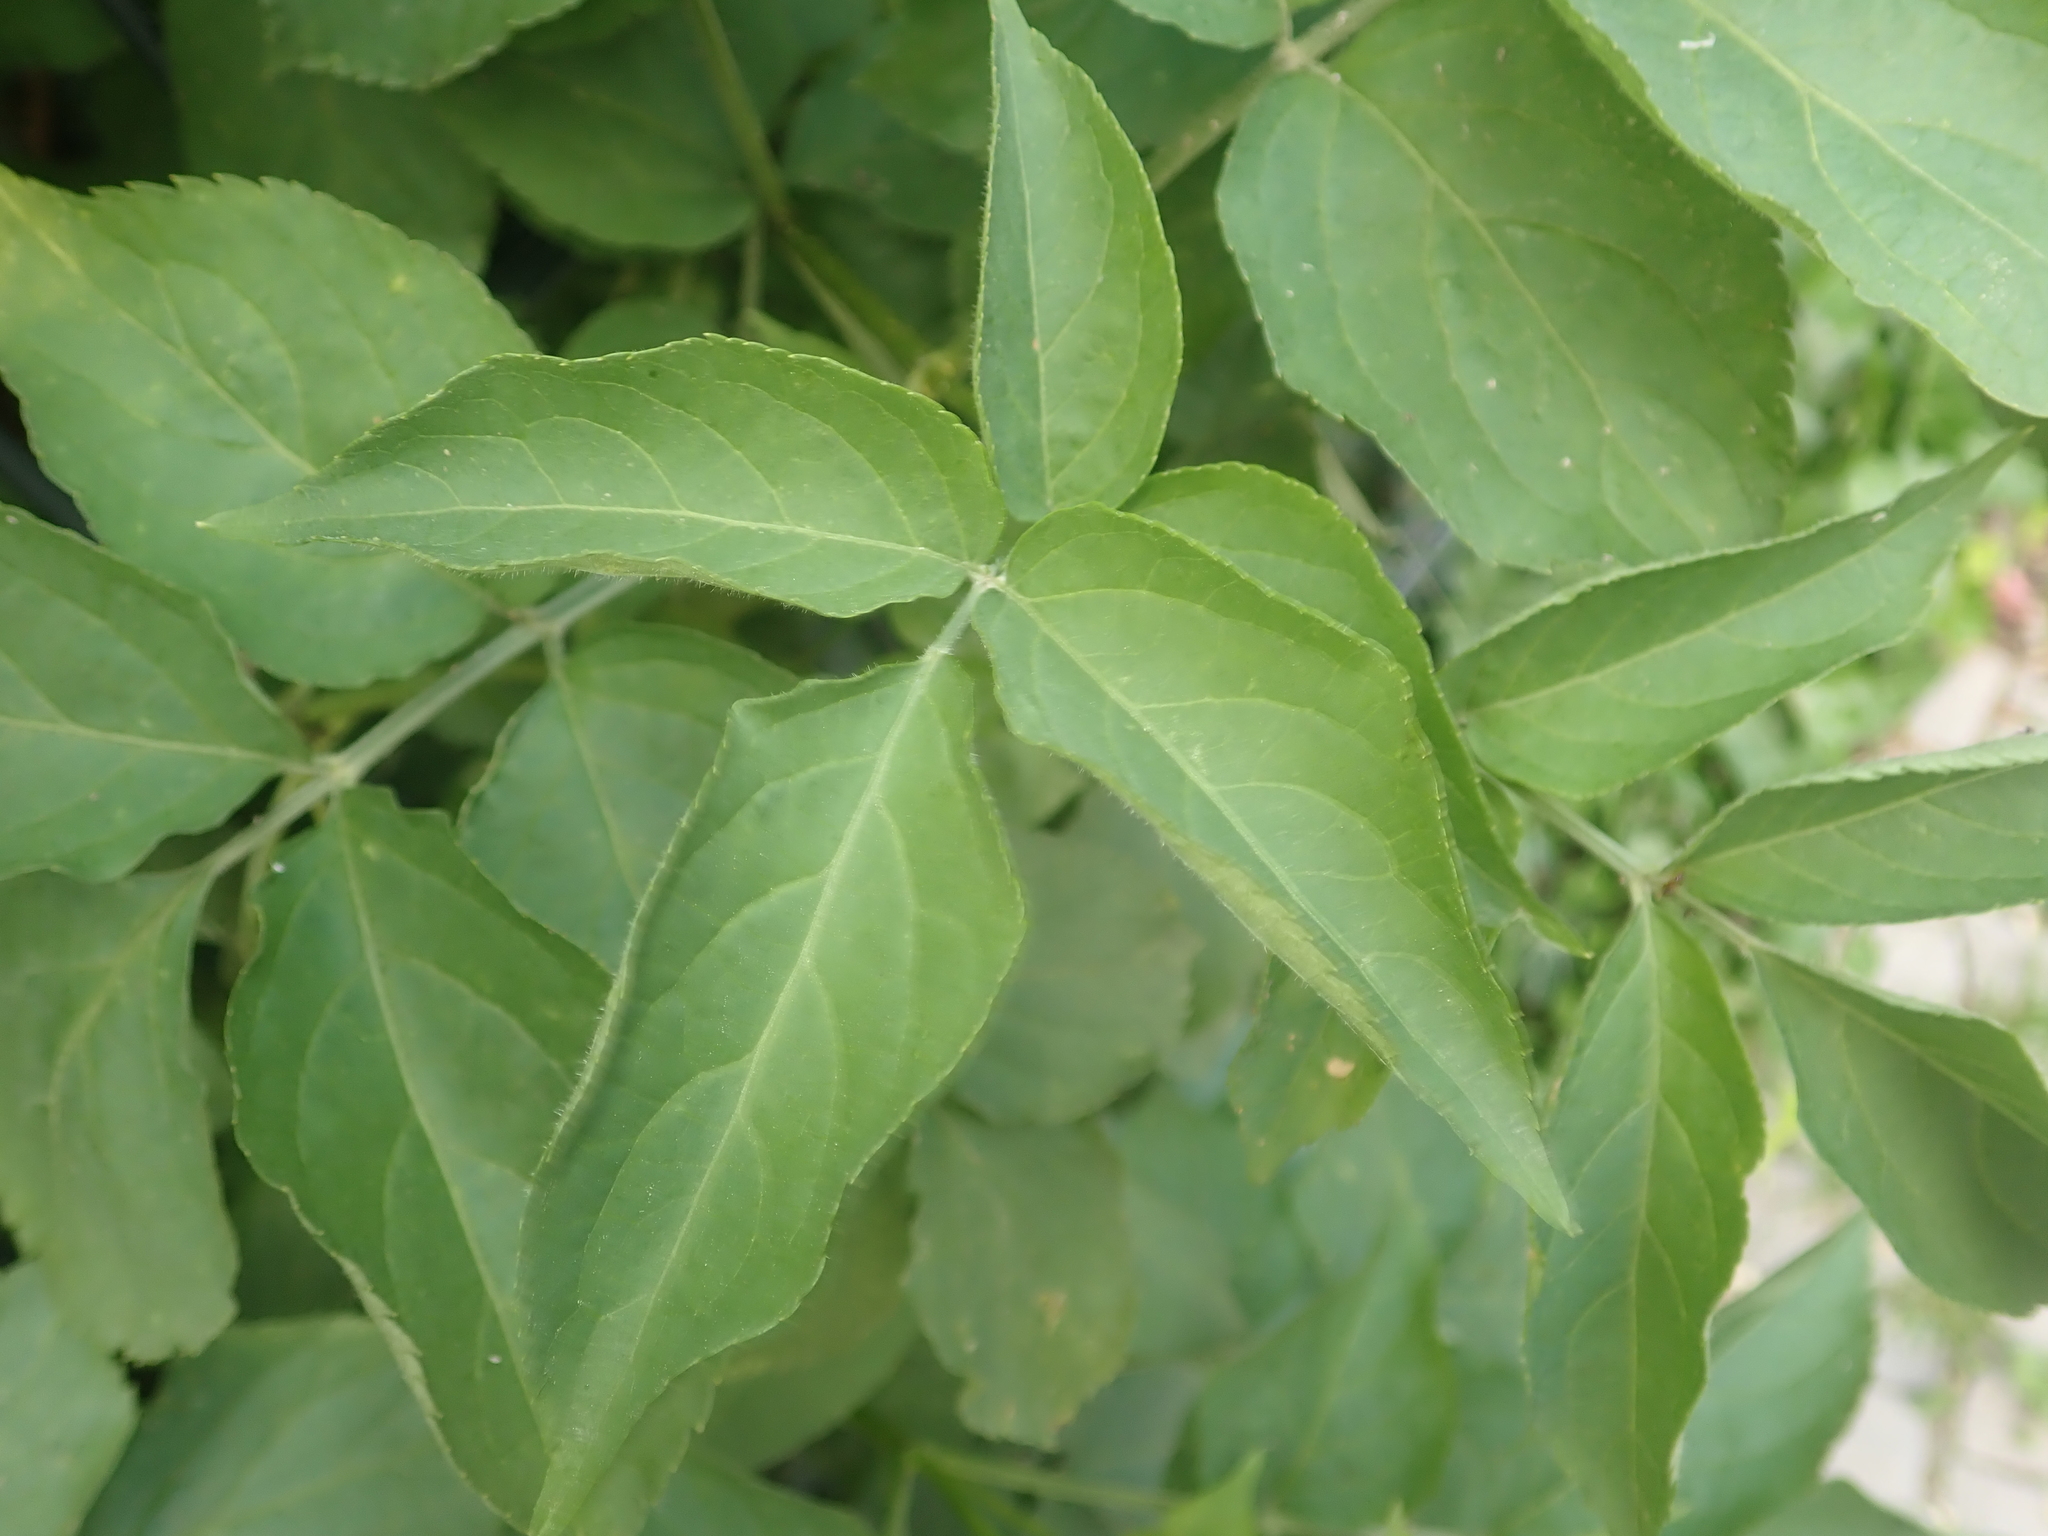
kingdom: Plantae
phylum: Tracheophyta
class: Magnoliopsida
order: Dipsacales
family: Viburnaceae
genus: Sambucus
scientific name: Sambucus nigra
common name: Elder
